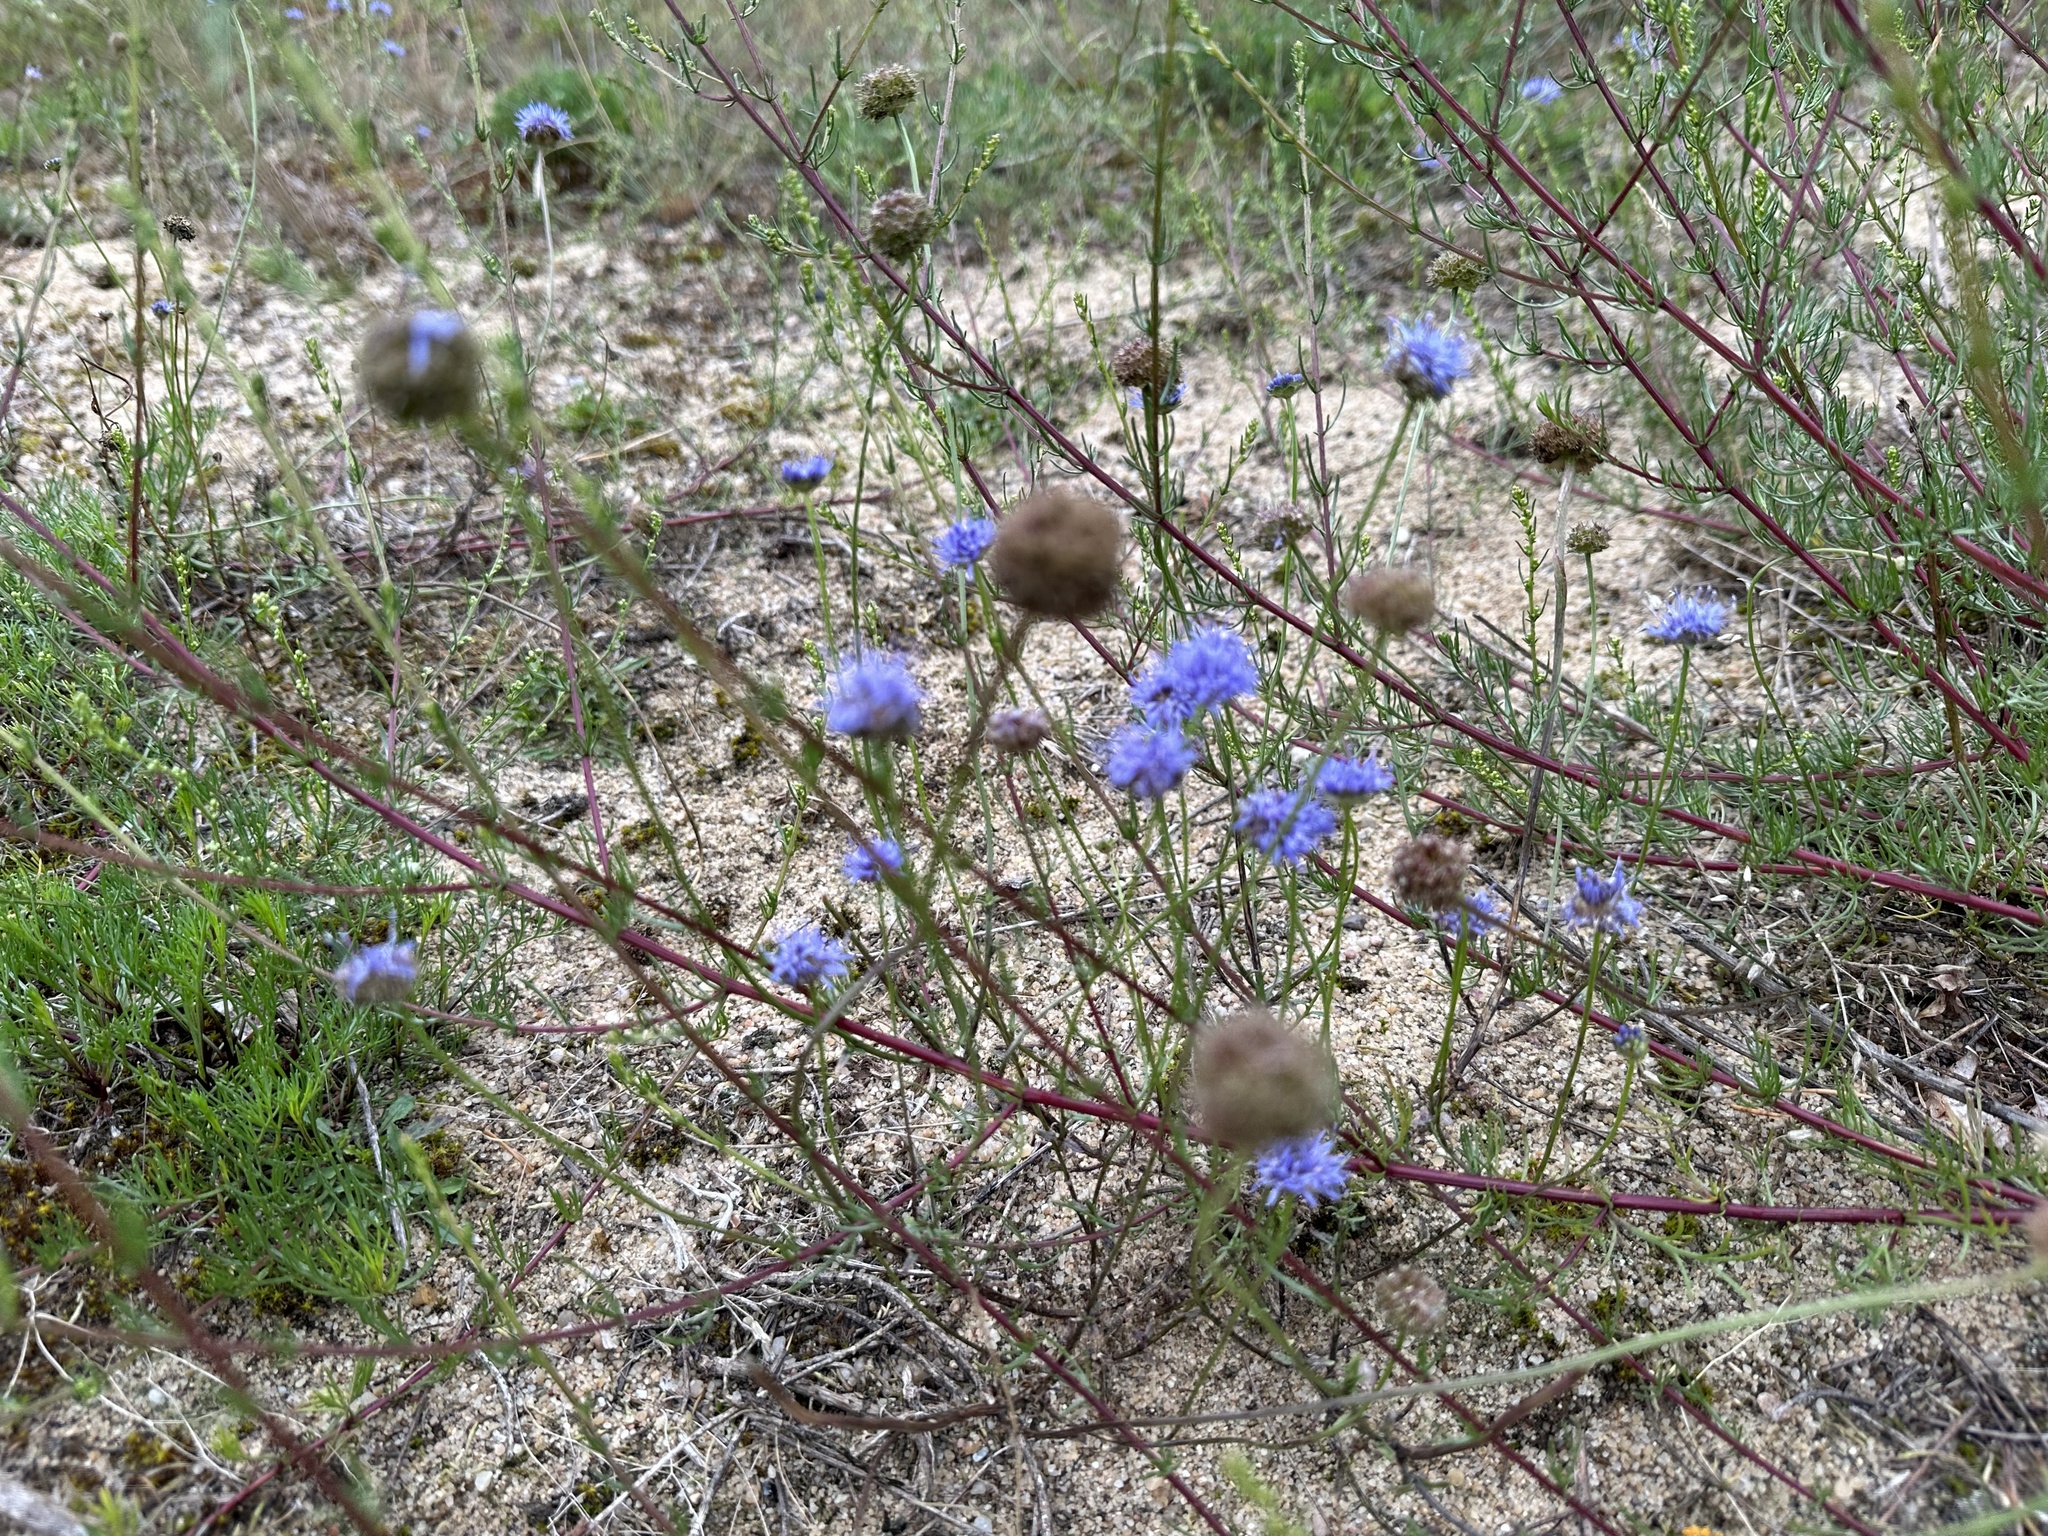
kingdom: Plantae
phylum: Tracheophyta
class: Magnoliopsida
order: Asterales
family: Campanulaceae
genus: Jasione
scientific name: Jasione montana
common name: Sheep's-bit
